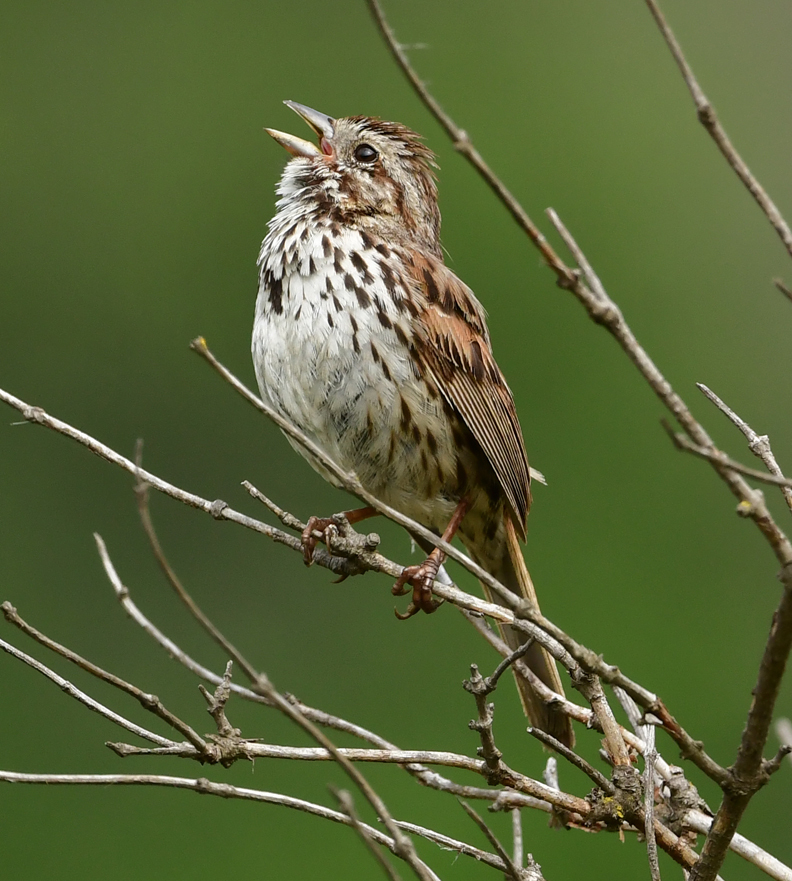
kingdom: Animalia
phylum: Chordata
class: Aves
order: Passeriformes
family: Passerellidae
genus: Melospiza
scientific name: Melospiza melodia
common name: Song sparrow
